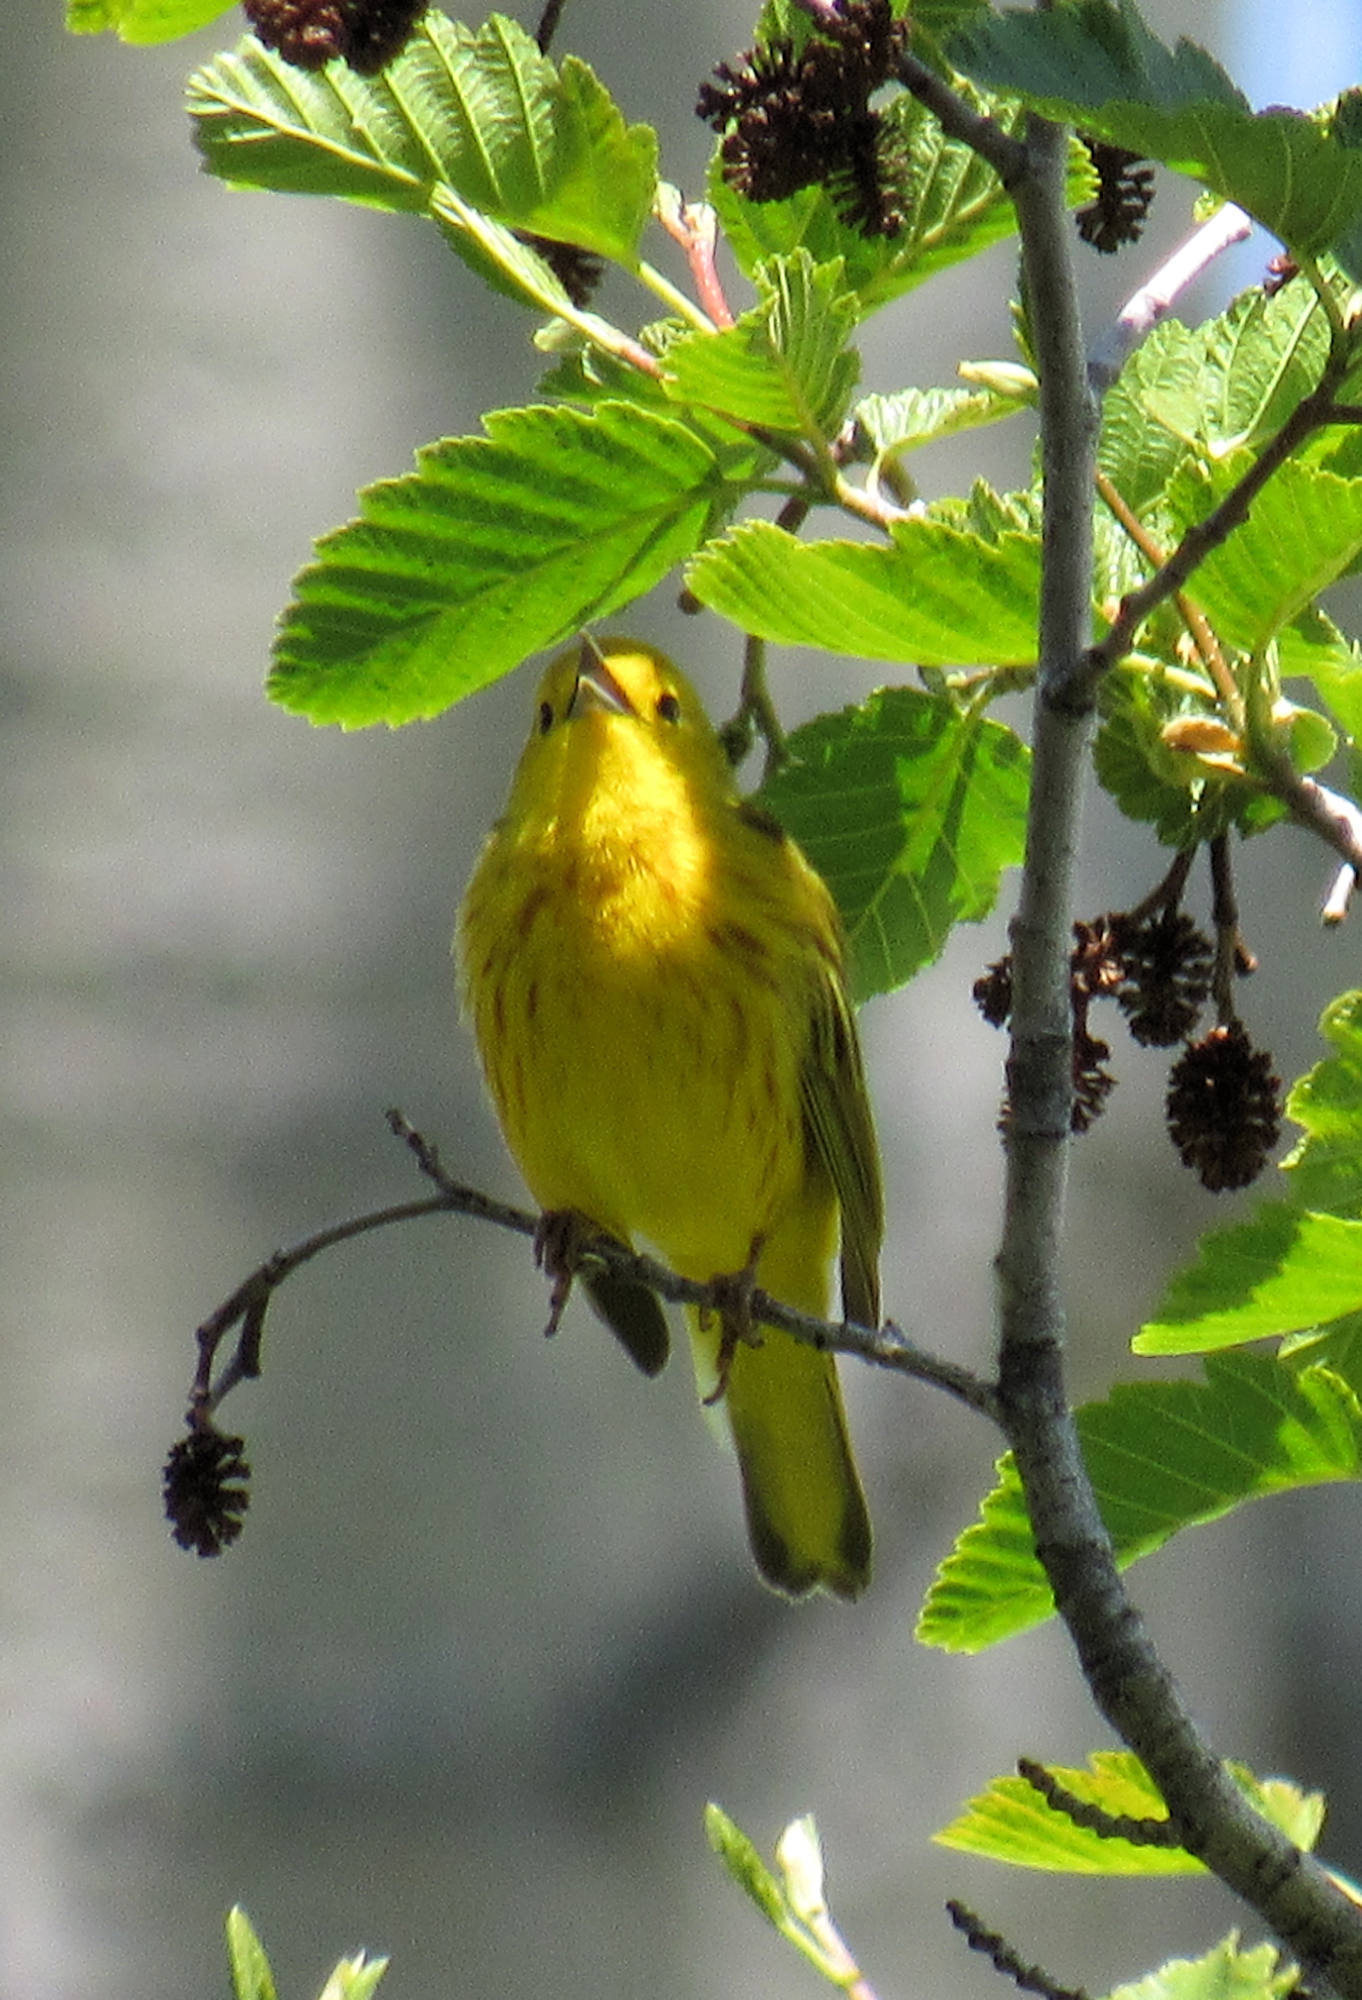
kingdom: Animalia
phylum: Chordata
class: Aves
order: Passeriformes
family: Parulidae
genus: Setophaga
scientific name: Setophaga petechia
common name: Yellow warbler
